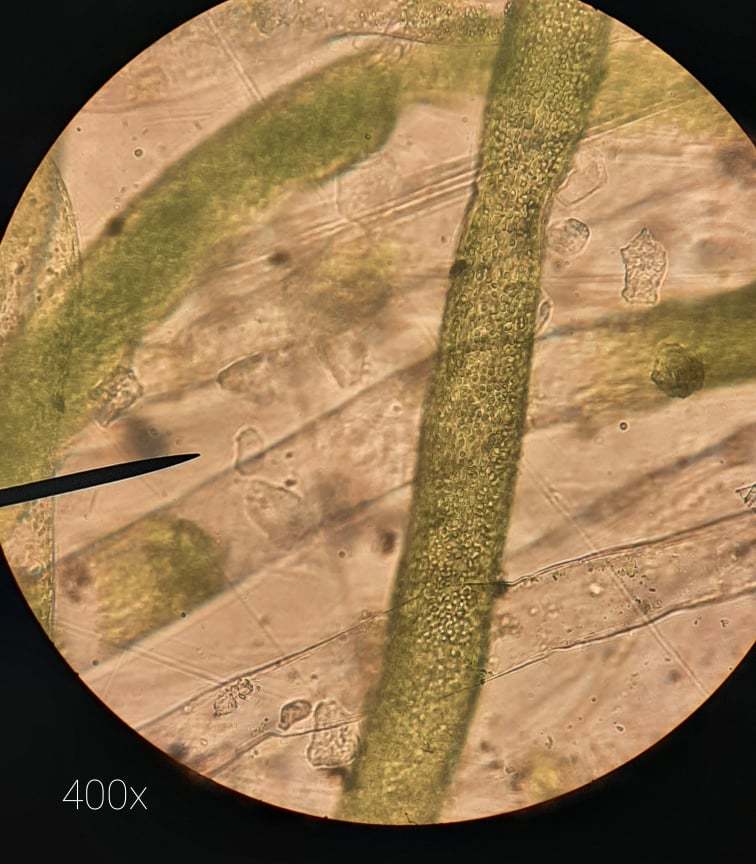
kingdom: Chromista
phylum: Ochrophyta
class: Xanthophyceae
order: Vaucheriales
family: Vaucheriaceae
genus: Vaucheria
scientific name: Vaucheria
